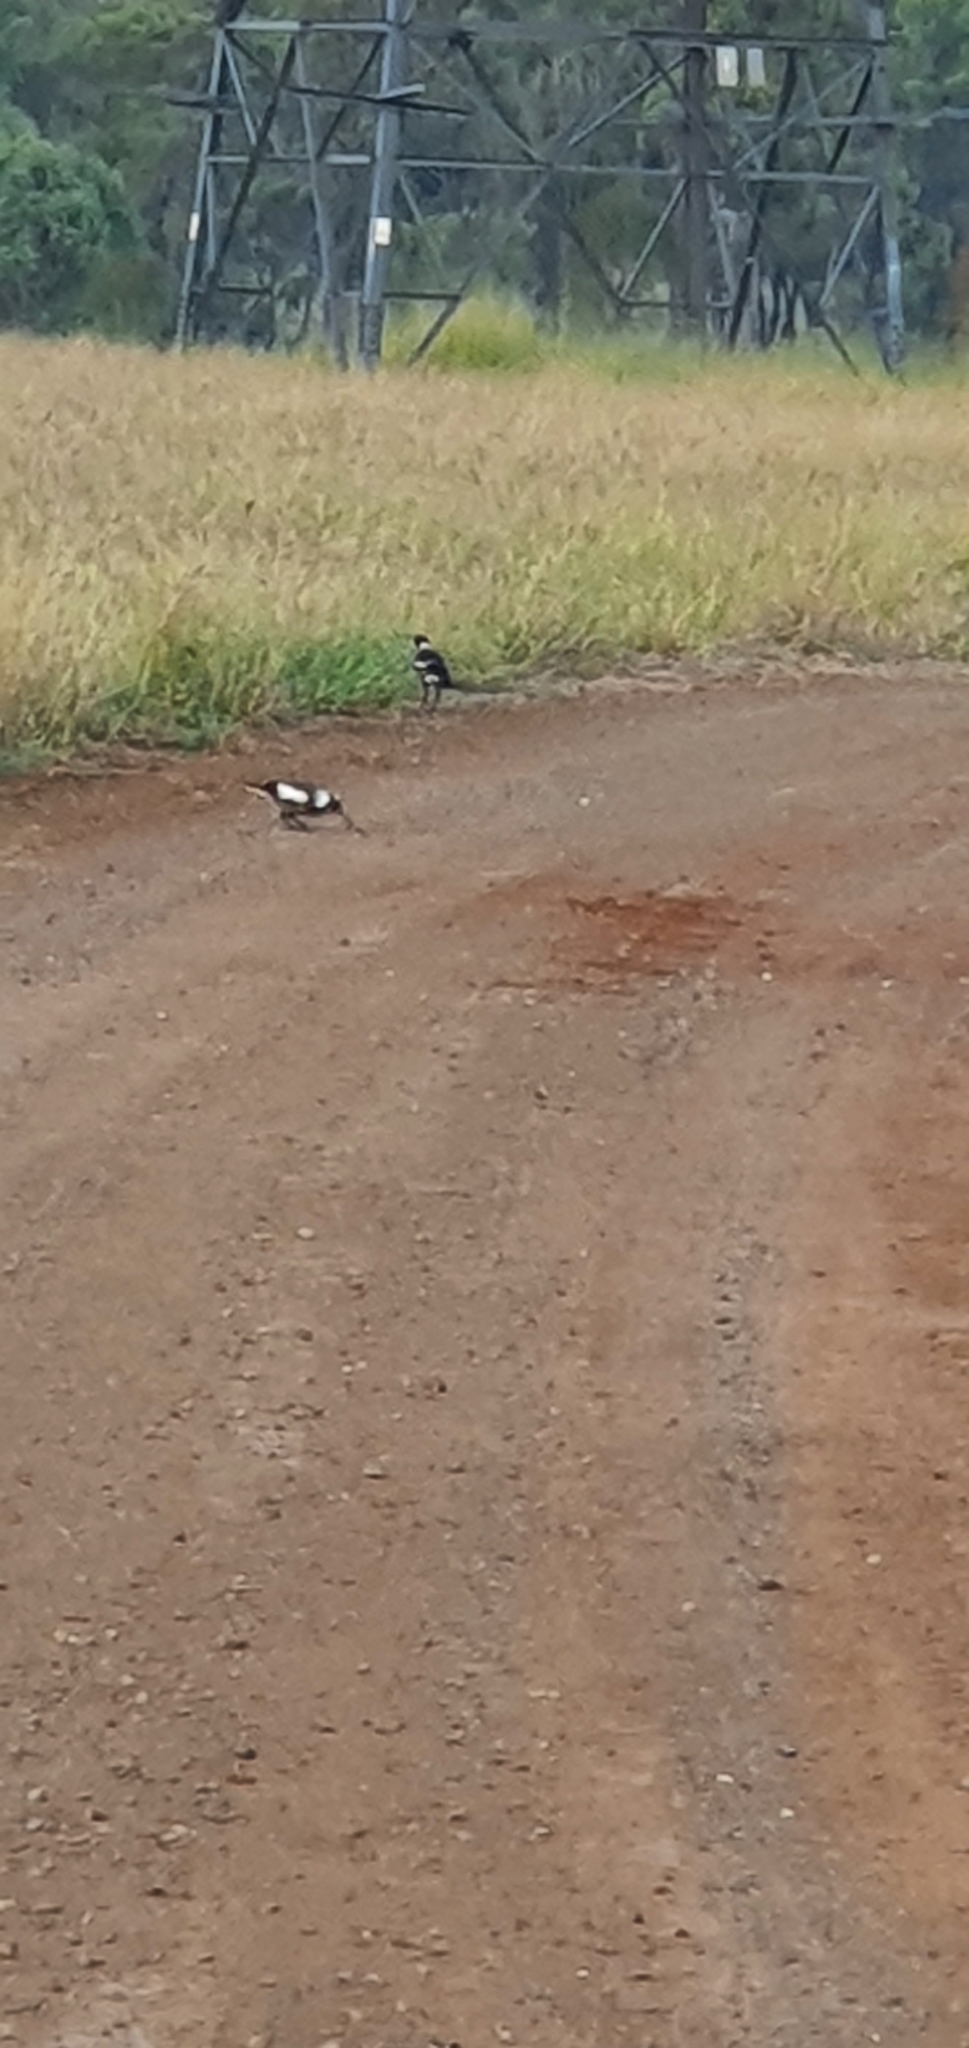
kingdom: Animalia
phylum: Chordata
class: Aves
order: Passeriformes
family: Cracticidae
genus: Gymnorhina
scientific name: Gymnorhina tibicen
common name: Australian magpie
